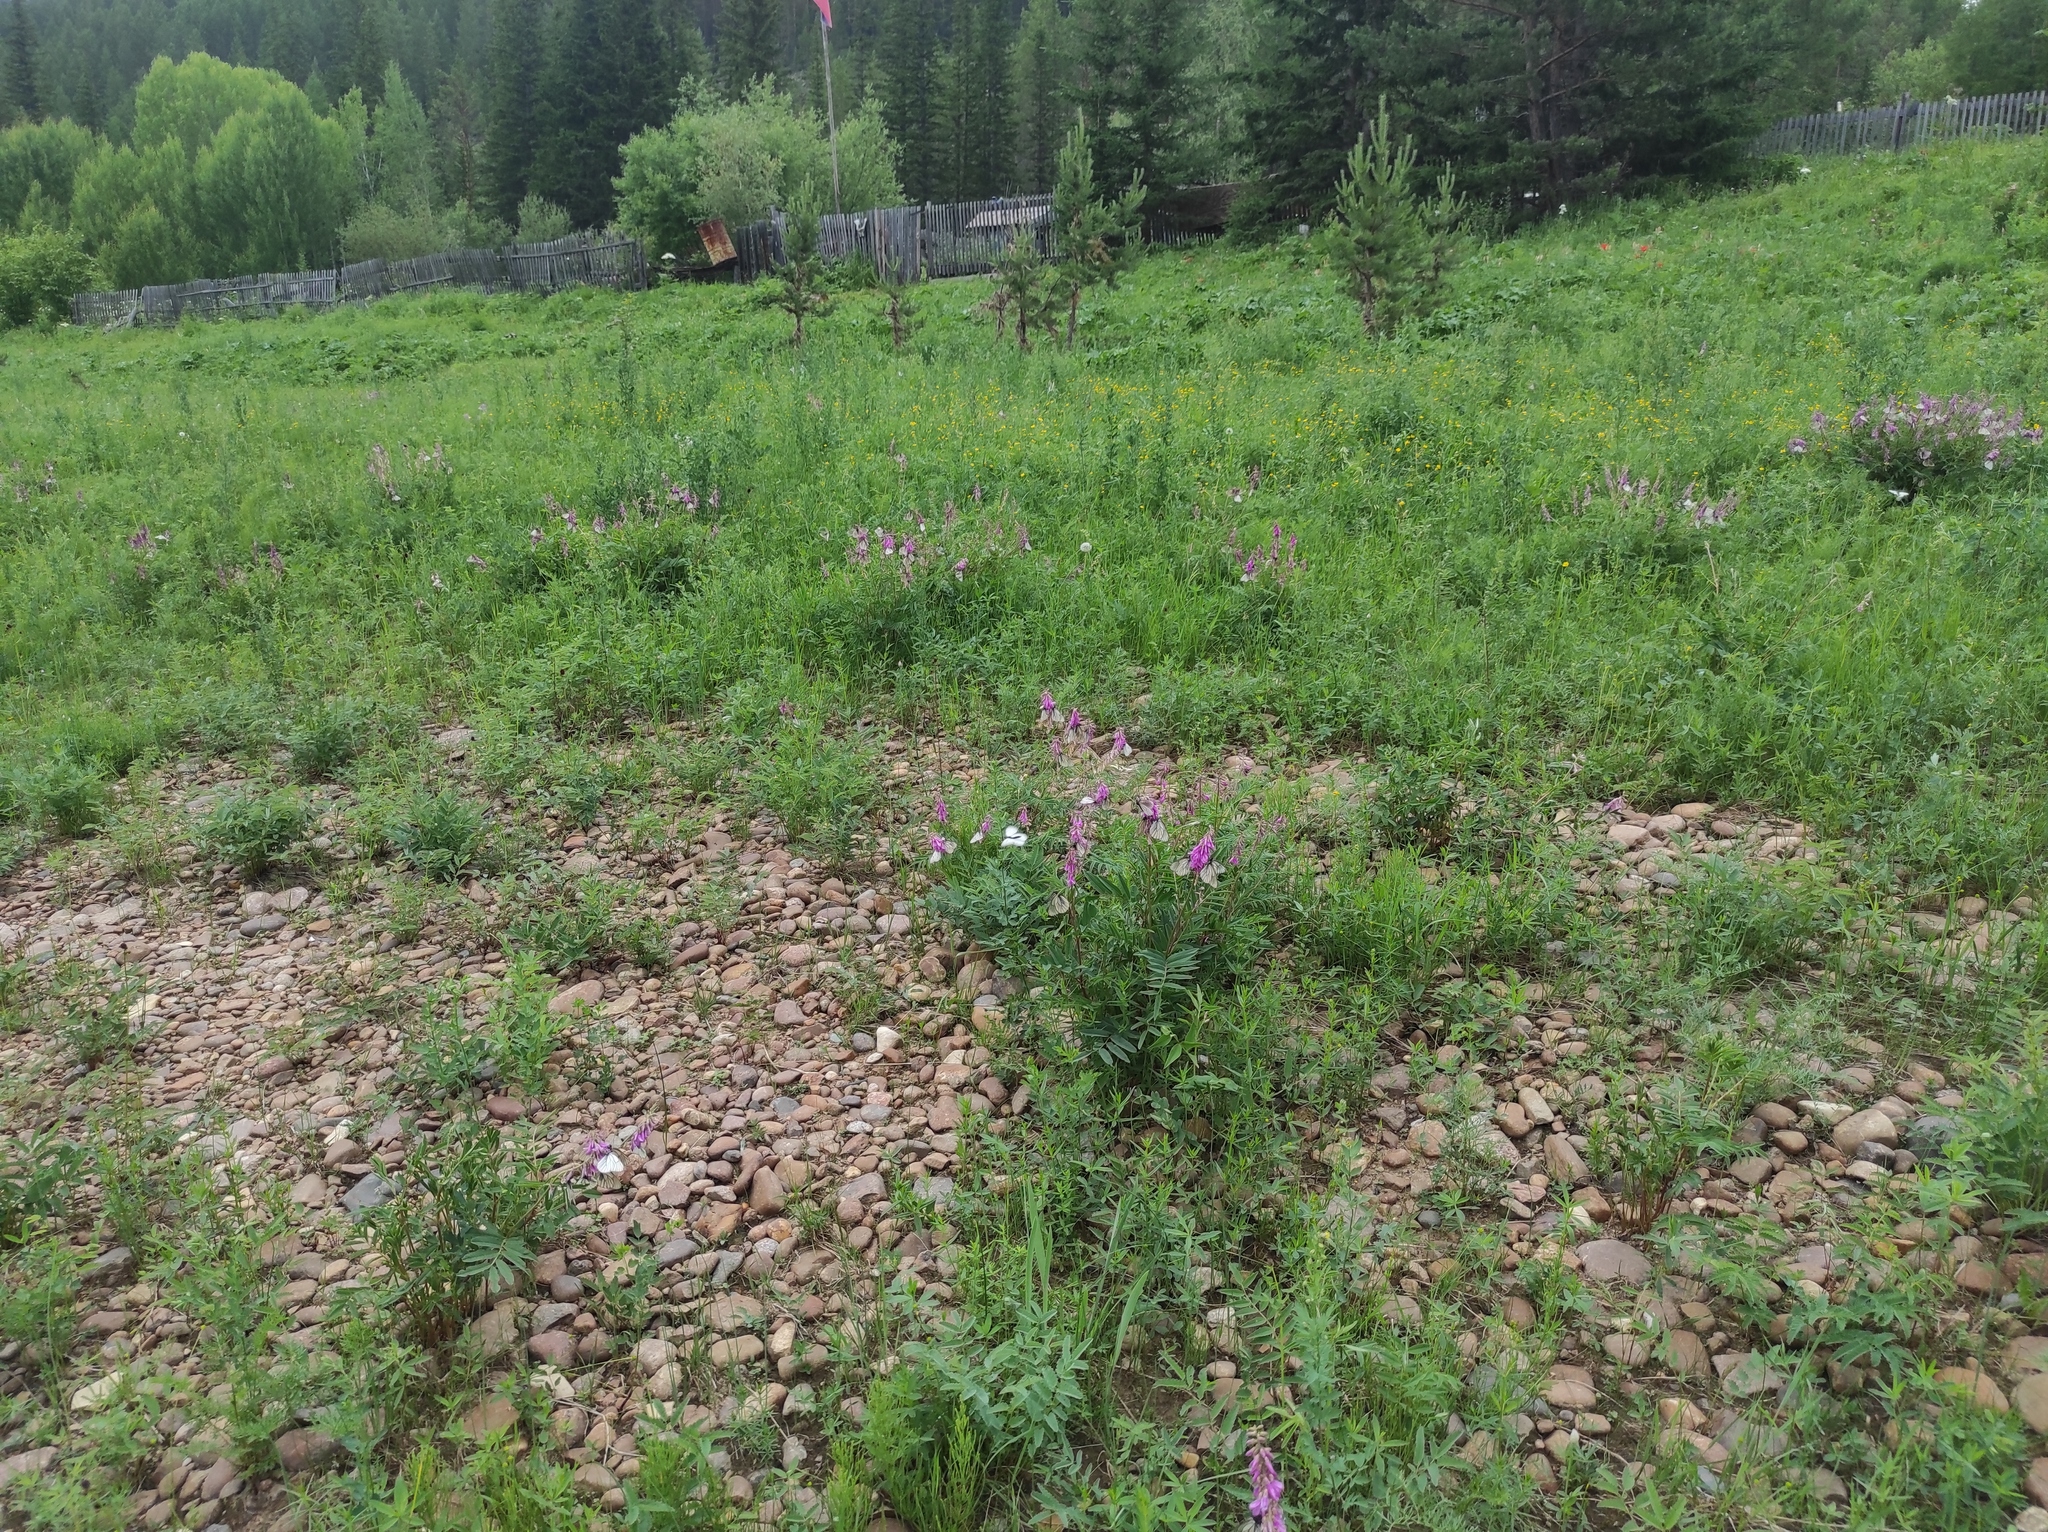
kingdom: Plantae
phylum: Tracheophyta
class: Magnoliopsida
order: Fabales
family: Fabaceae
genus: Hedysarum
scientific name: Hedysarum branthii
